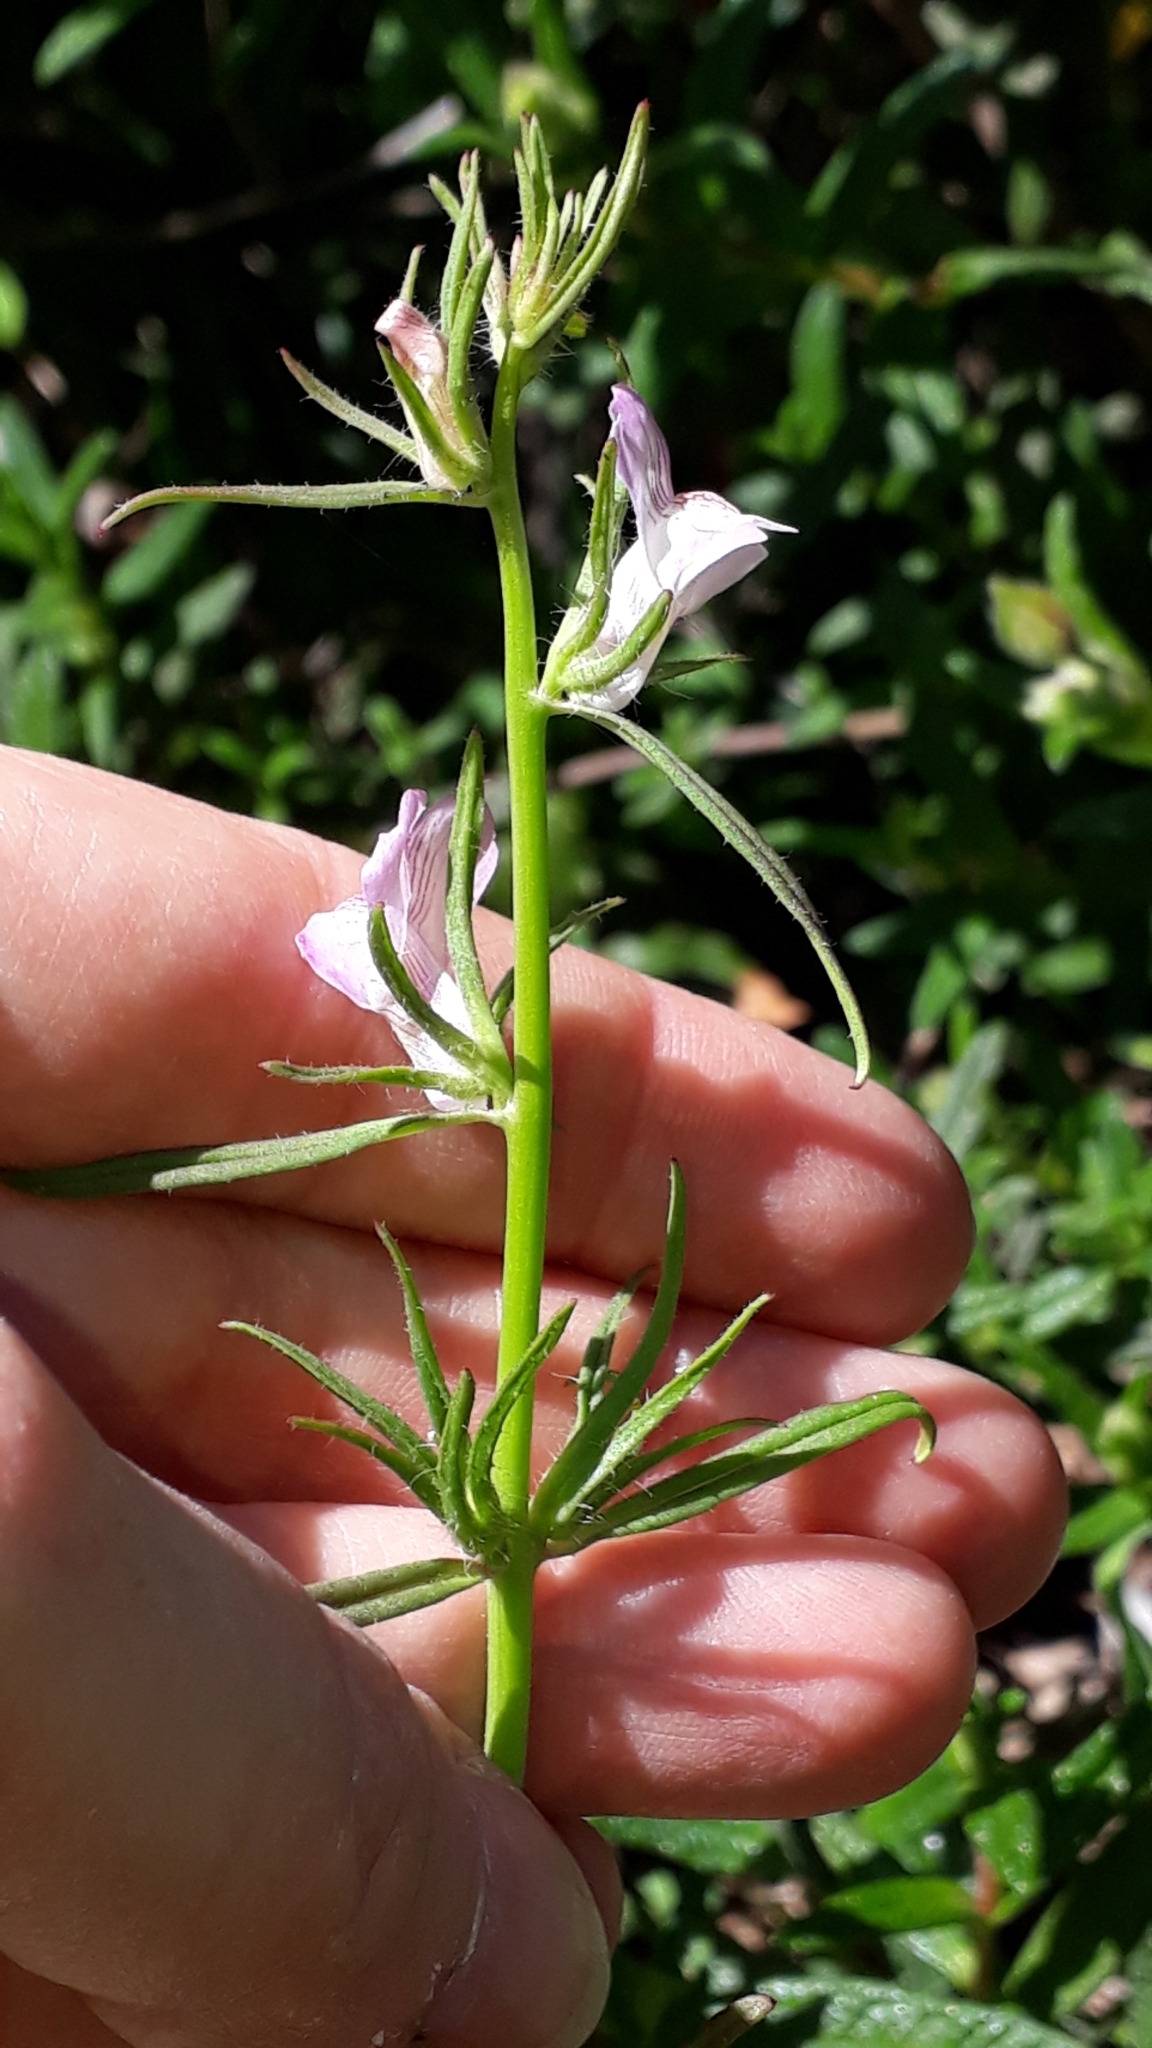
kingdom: Plantae
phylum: Tracheophyta
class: Magnoliopsida
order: Lamiales
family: Plantaginaceae
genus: Misopates
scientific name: Misopates orontium
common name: Weasel's-snout
